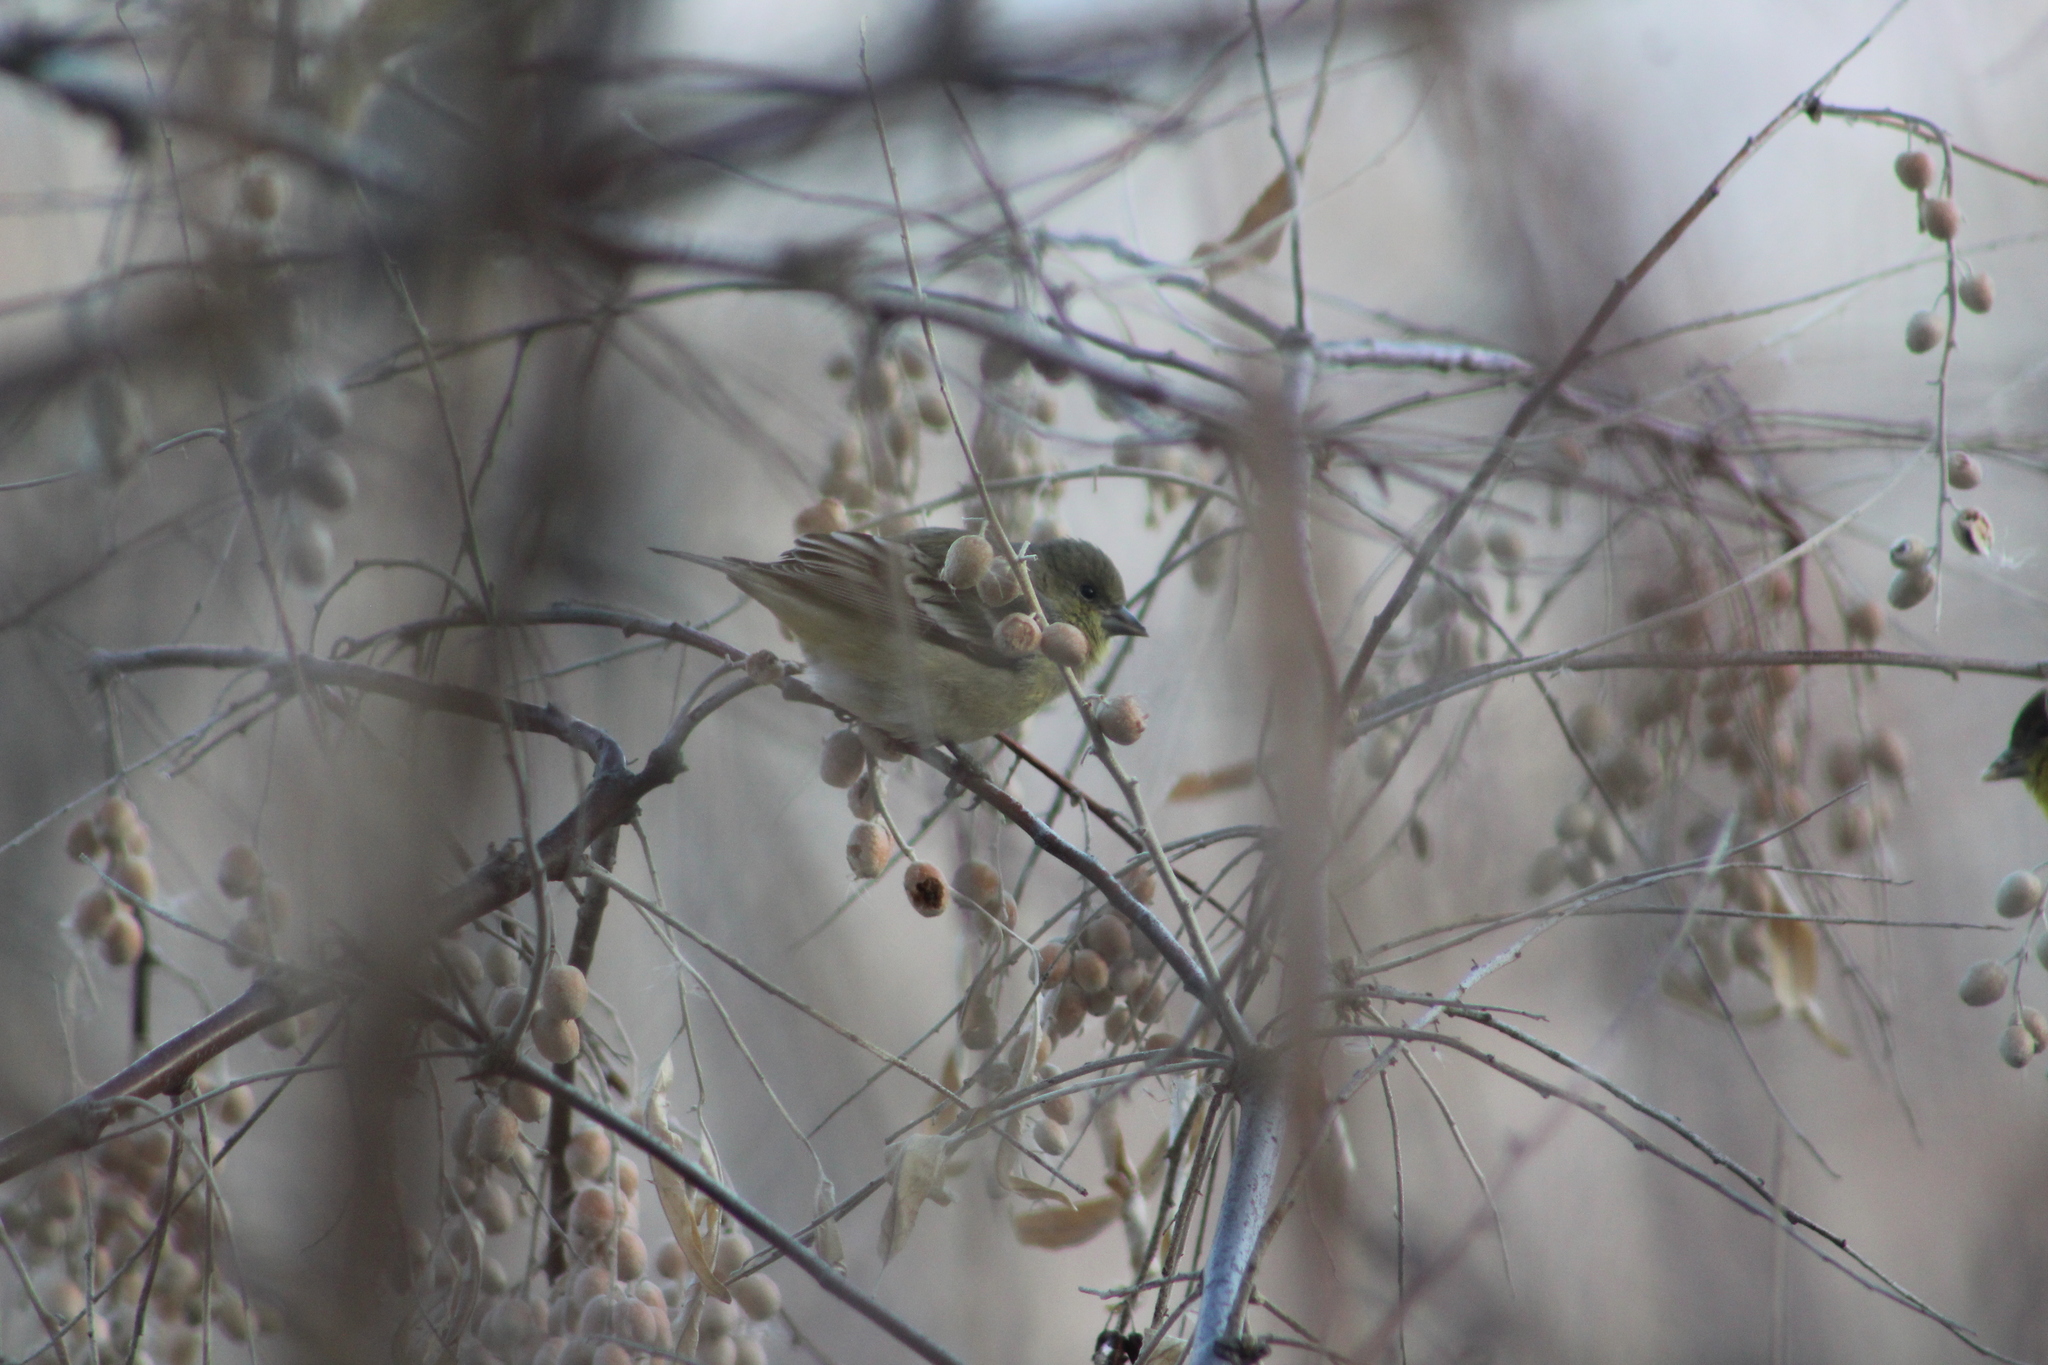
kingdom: Animalia
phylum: Chordata
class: Aves
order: Passeriformes
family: Fringillidae
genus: Spinus
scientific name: Spinus psaltria
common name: Lesser goldfinch
